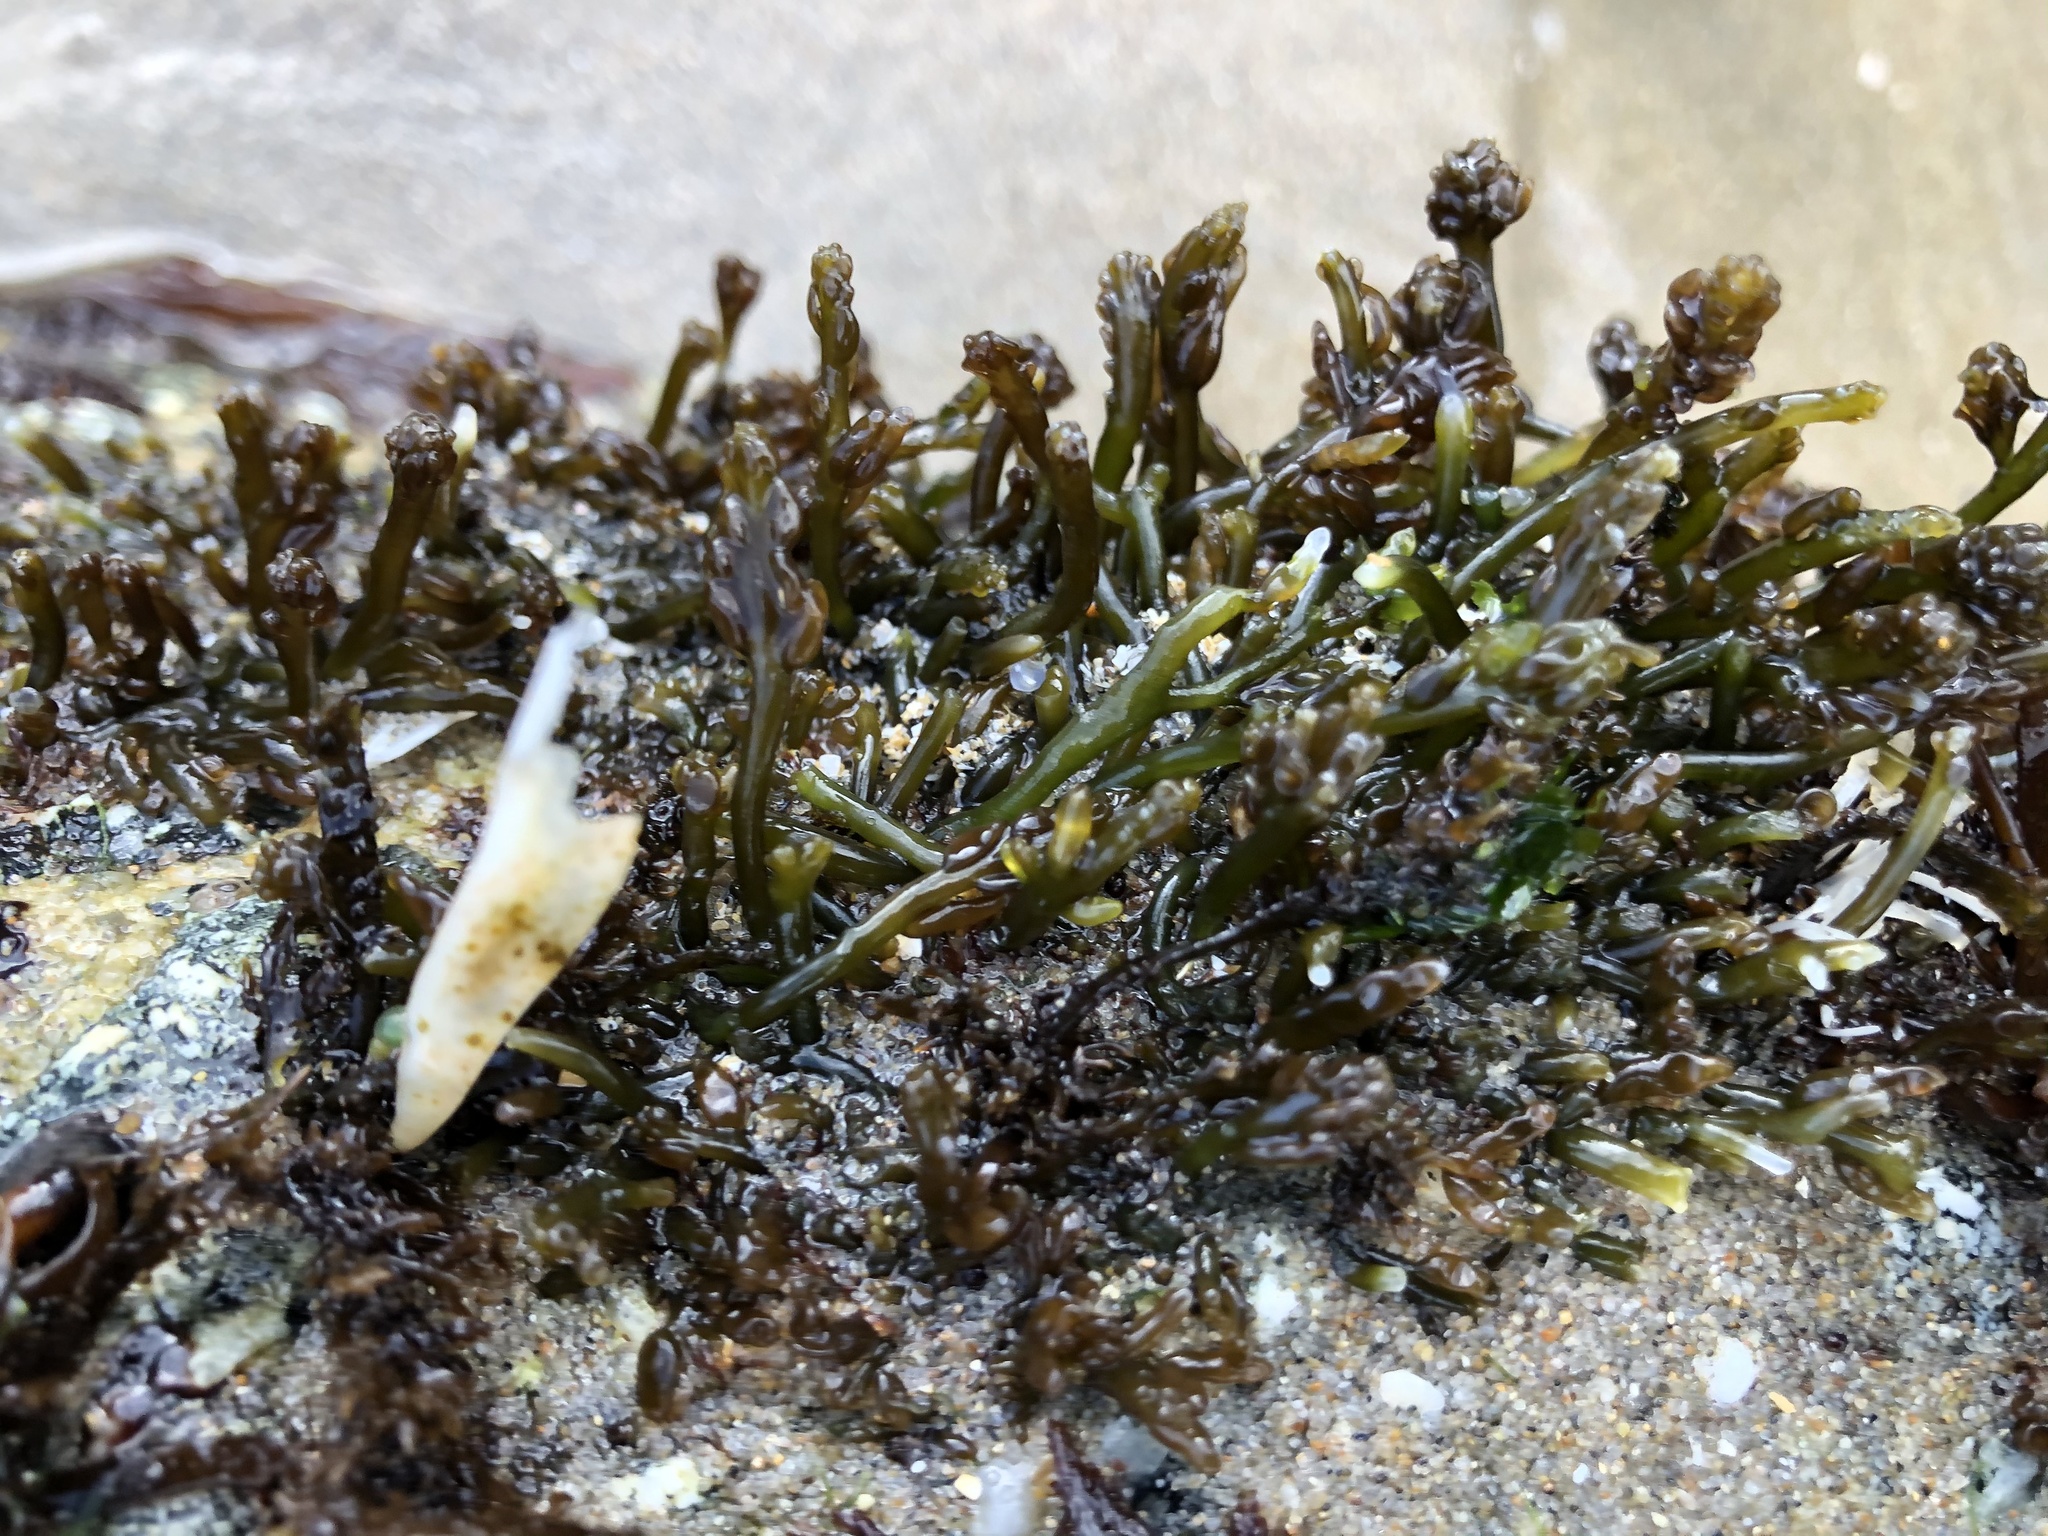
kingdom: Plantae
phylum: Rhodophyta
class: Florideophyceae
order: Rhodymeniales
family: Champiaceae
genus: Neogastroclonium
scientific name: Neogastroclonium subarticulatum
